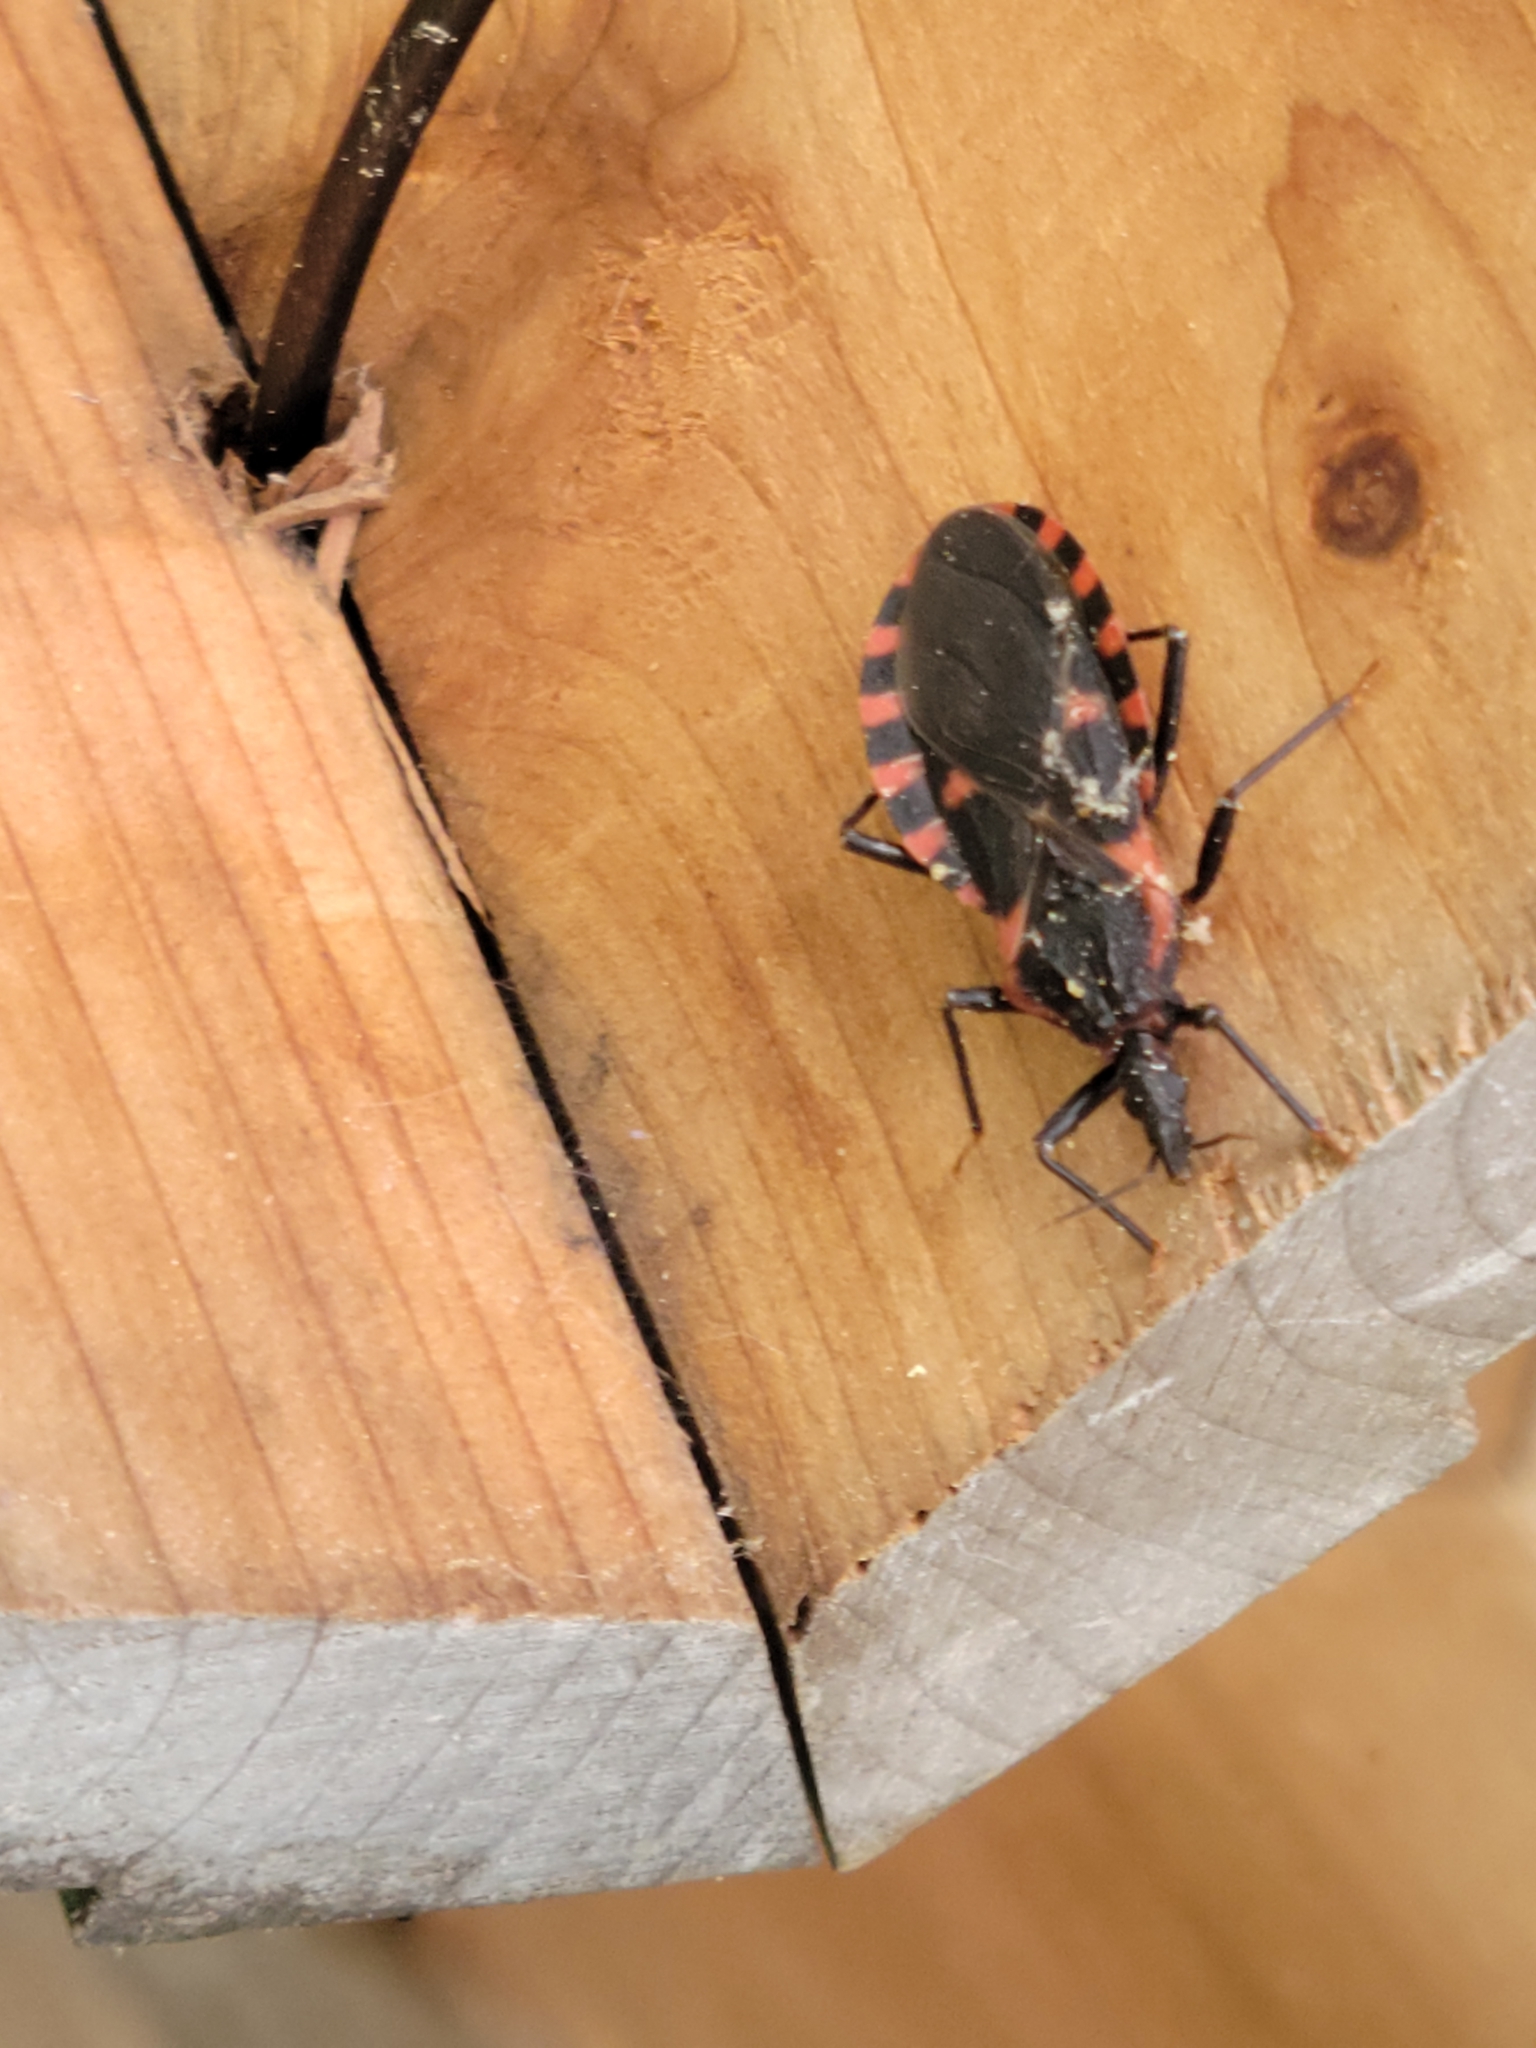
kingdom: Animalia
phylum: Arthropoda
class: Insecta
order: Hemiptera
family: Reduviidae
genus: Triatoma
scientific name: Triatoma sanguisuga
